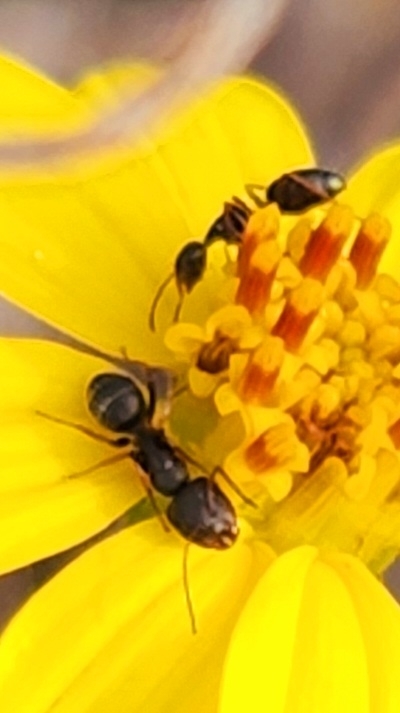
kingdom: Animalia
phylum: Arthropoda
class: Insecta
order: Hymenoptera
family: Formicidae
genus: Camponotus
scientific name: Camponotus socorroensis
